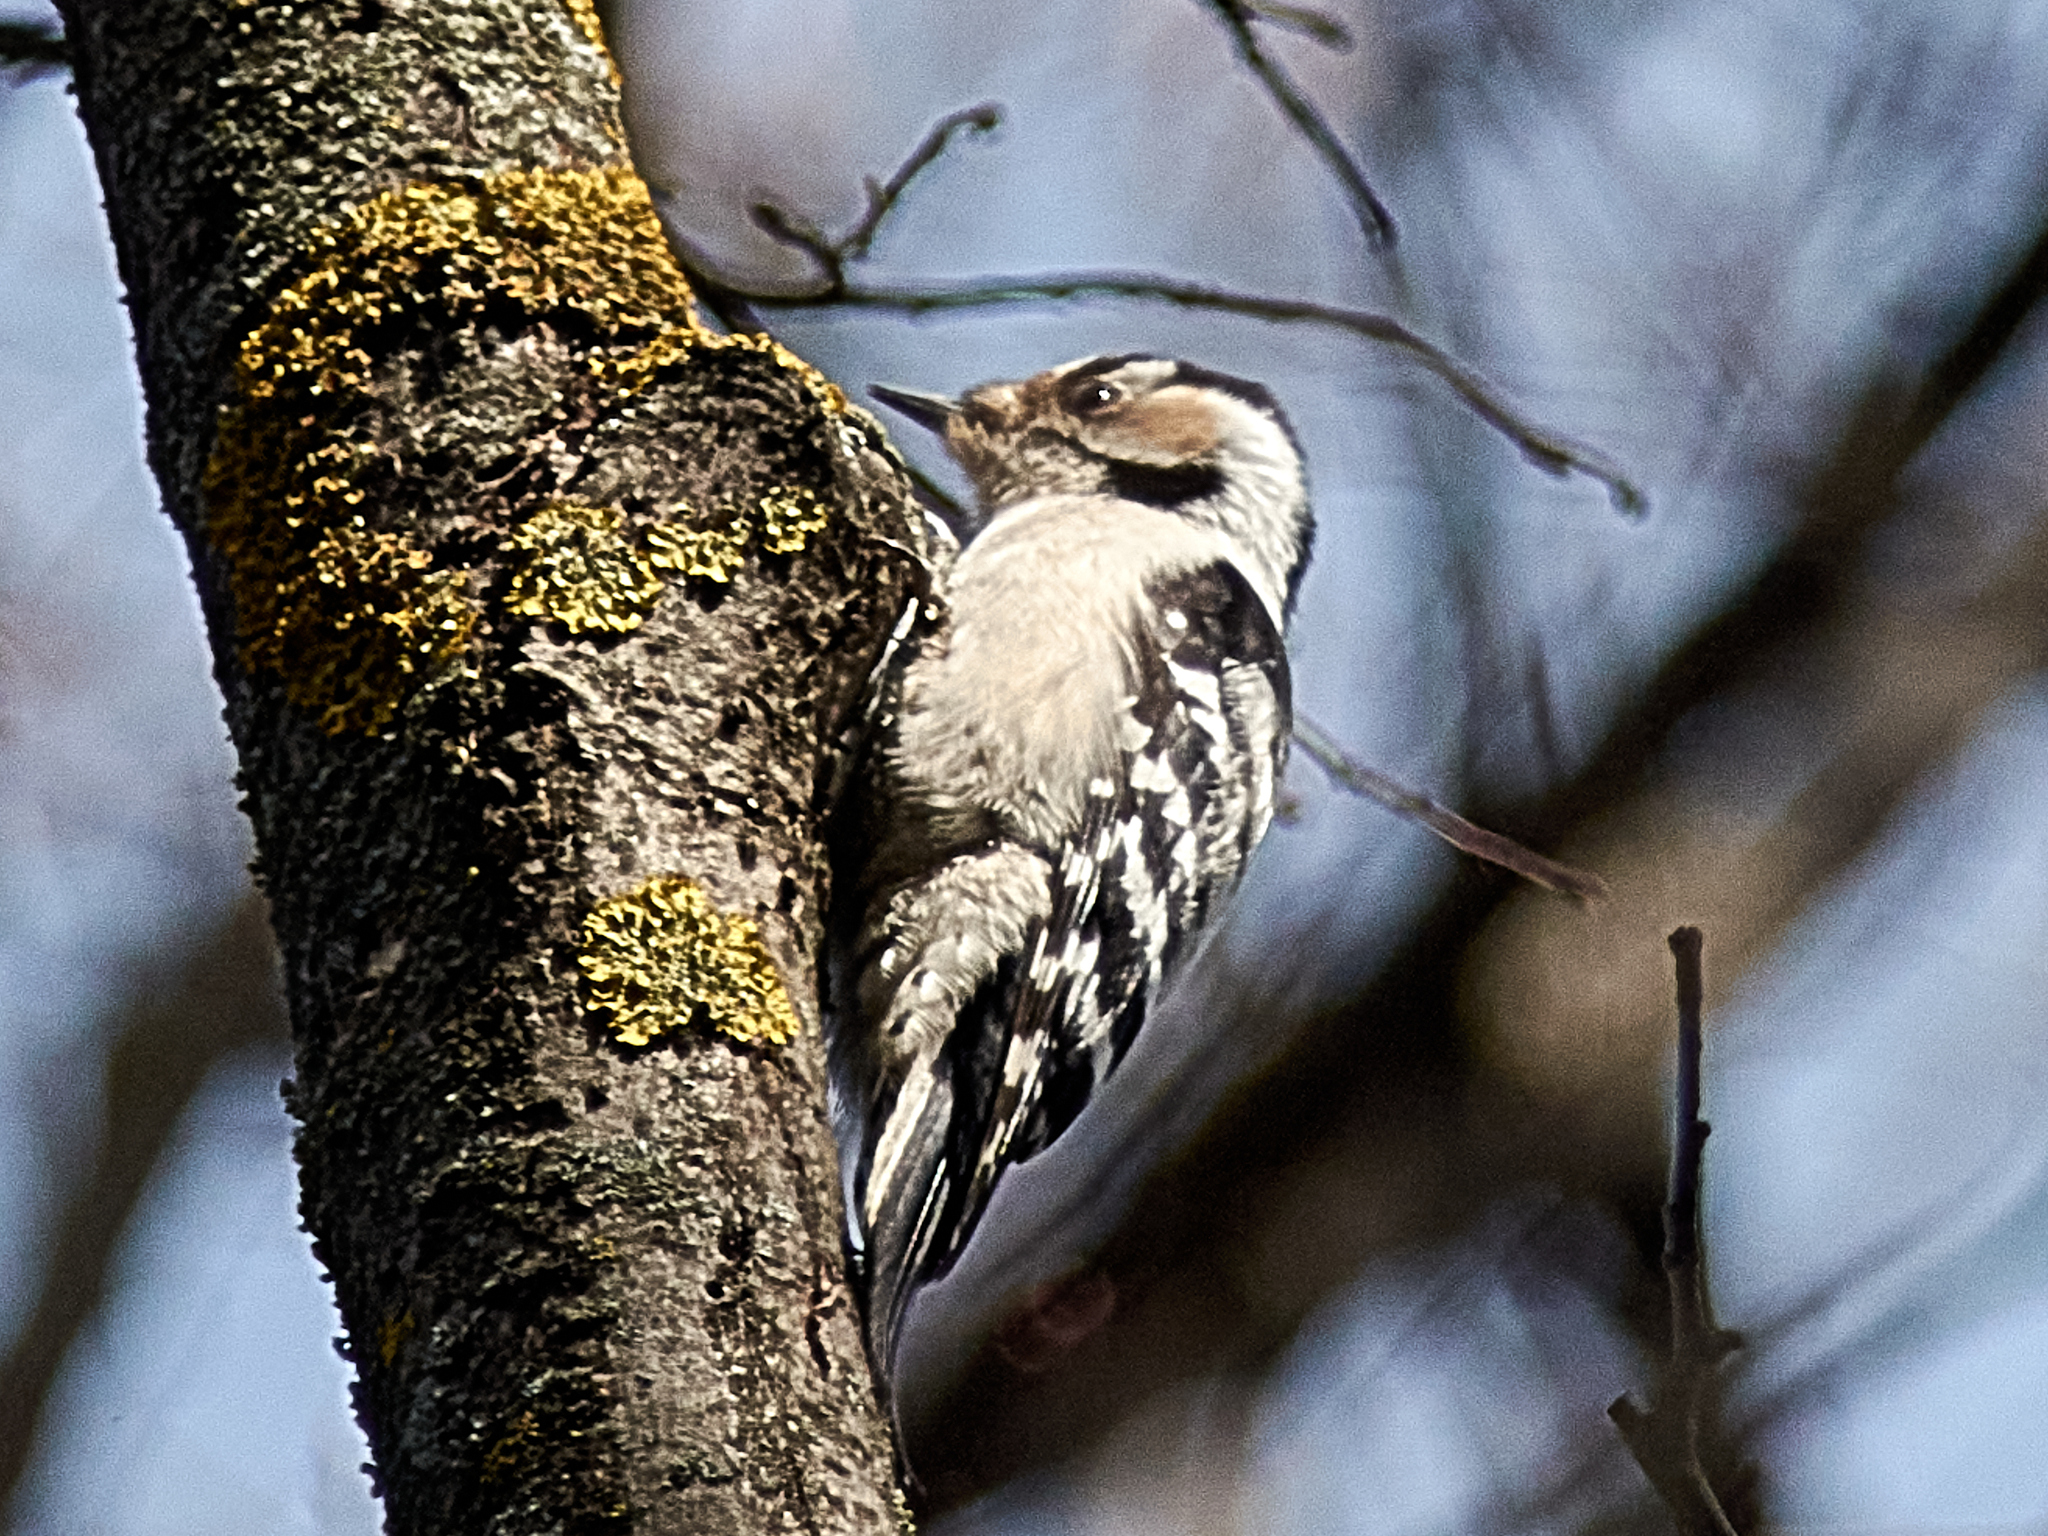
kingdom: Animalia
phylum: Chordata
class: Aves
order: Piciformes
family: Picidae
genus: Dryobates
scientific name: Dryobates minor
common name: Lesser spotted woodpecker
